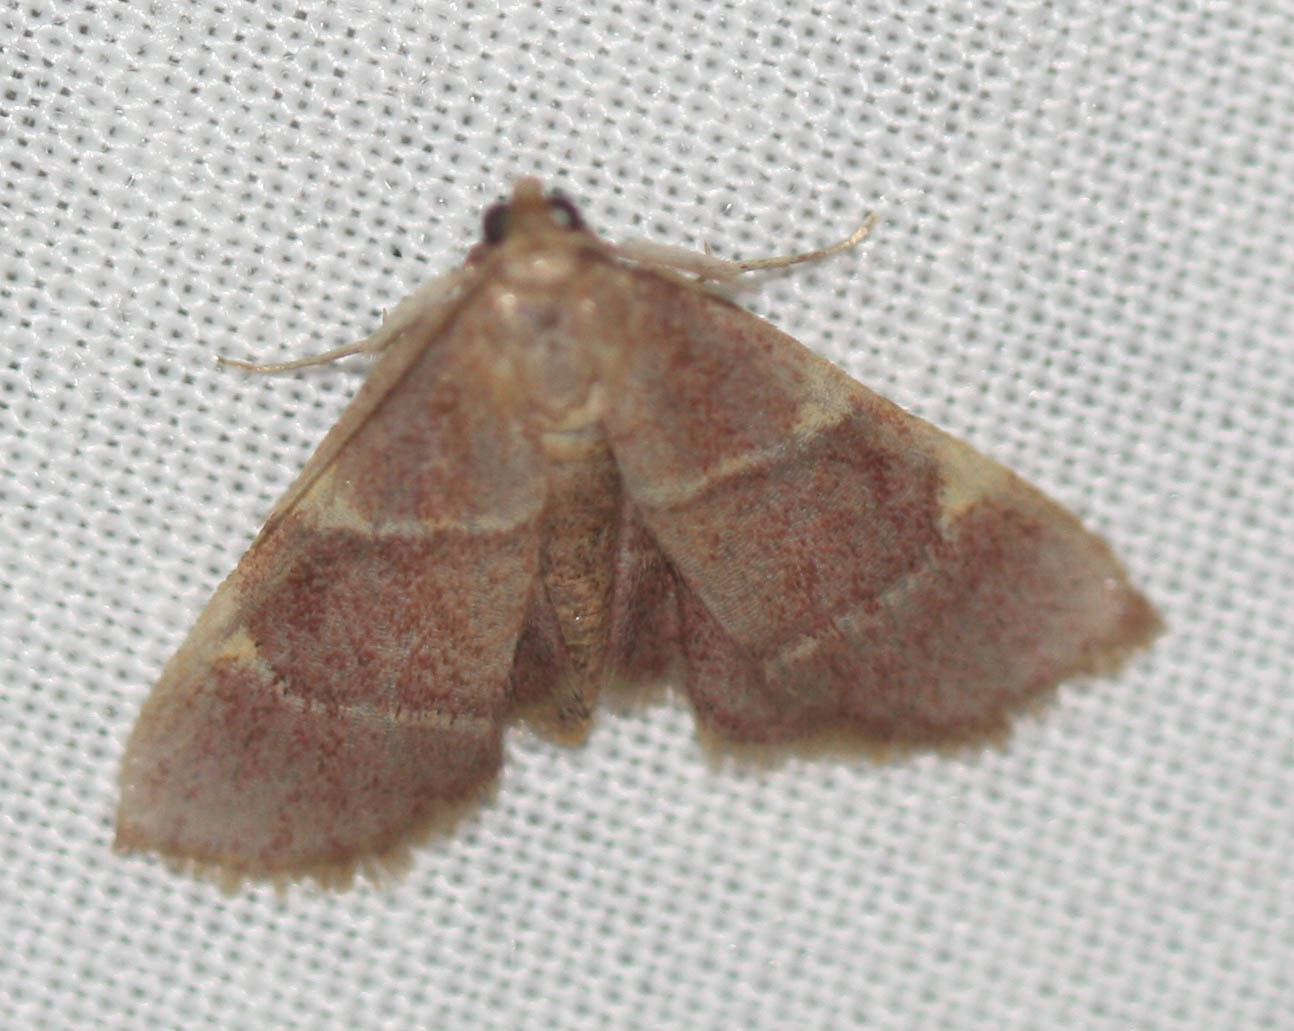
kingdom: Animalia
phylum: Arthropoda
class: Insecta
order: Lepidoptera
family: Pyralidae
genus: Hypsopygia
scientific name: Hypsopygia olinalis
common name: Yellow-fringed dolichomia moth
